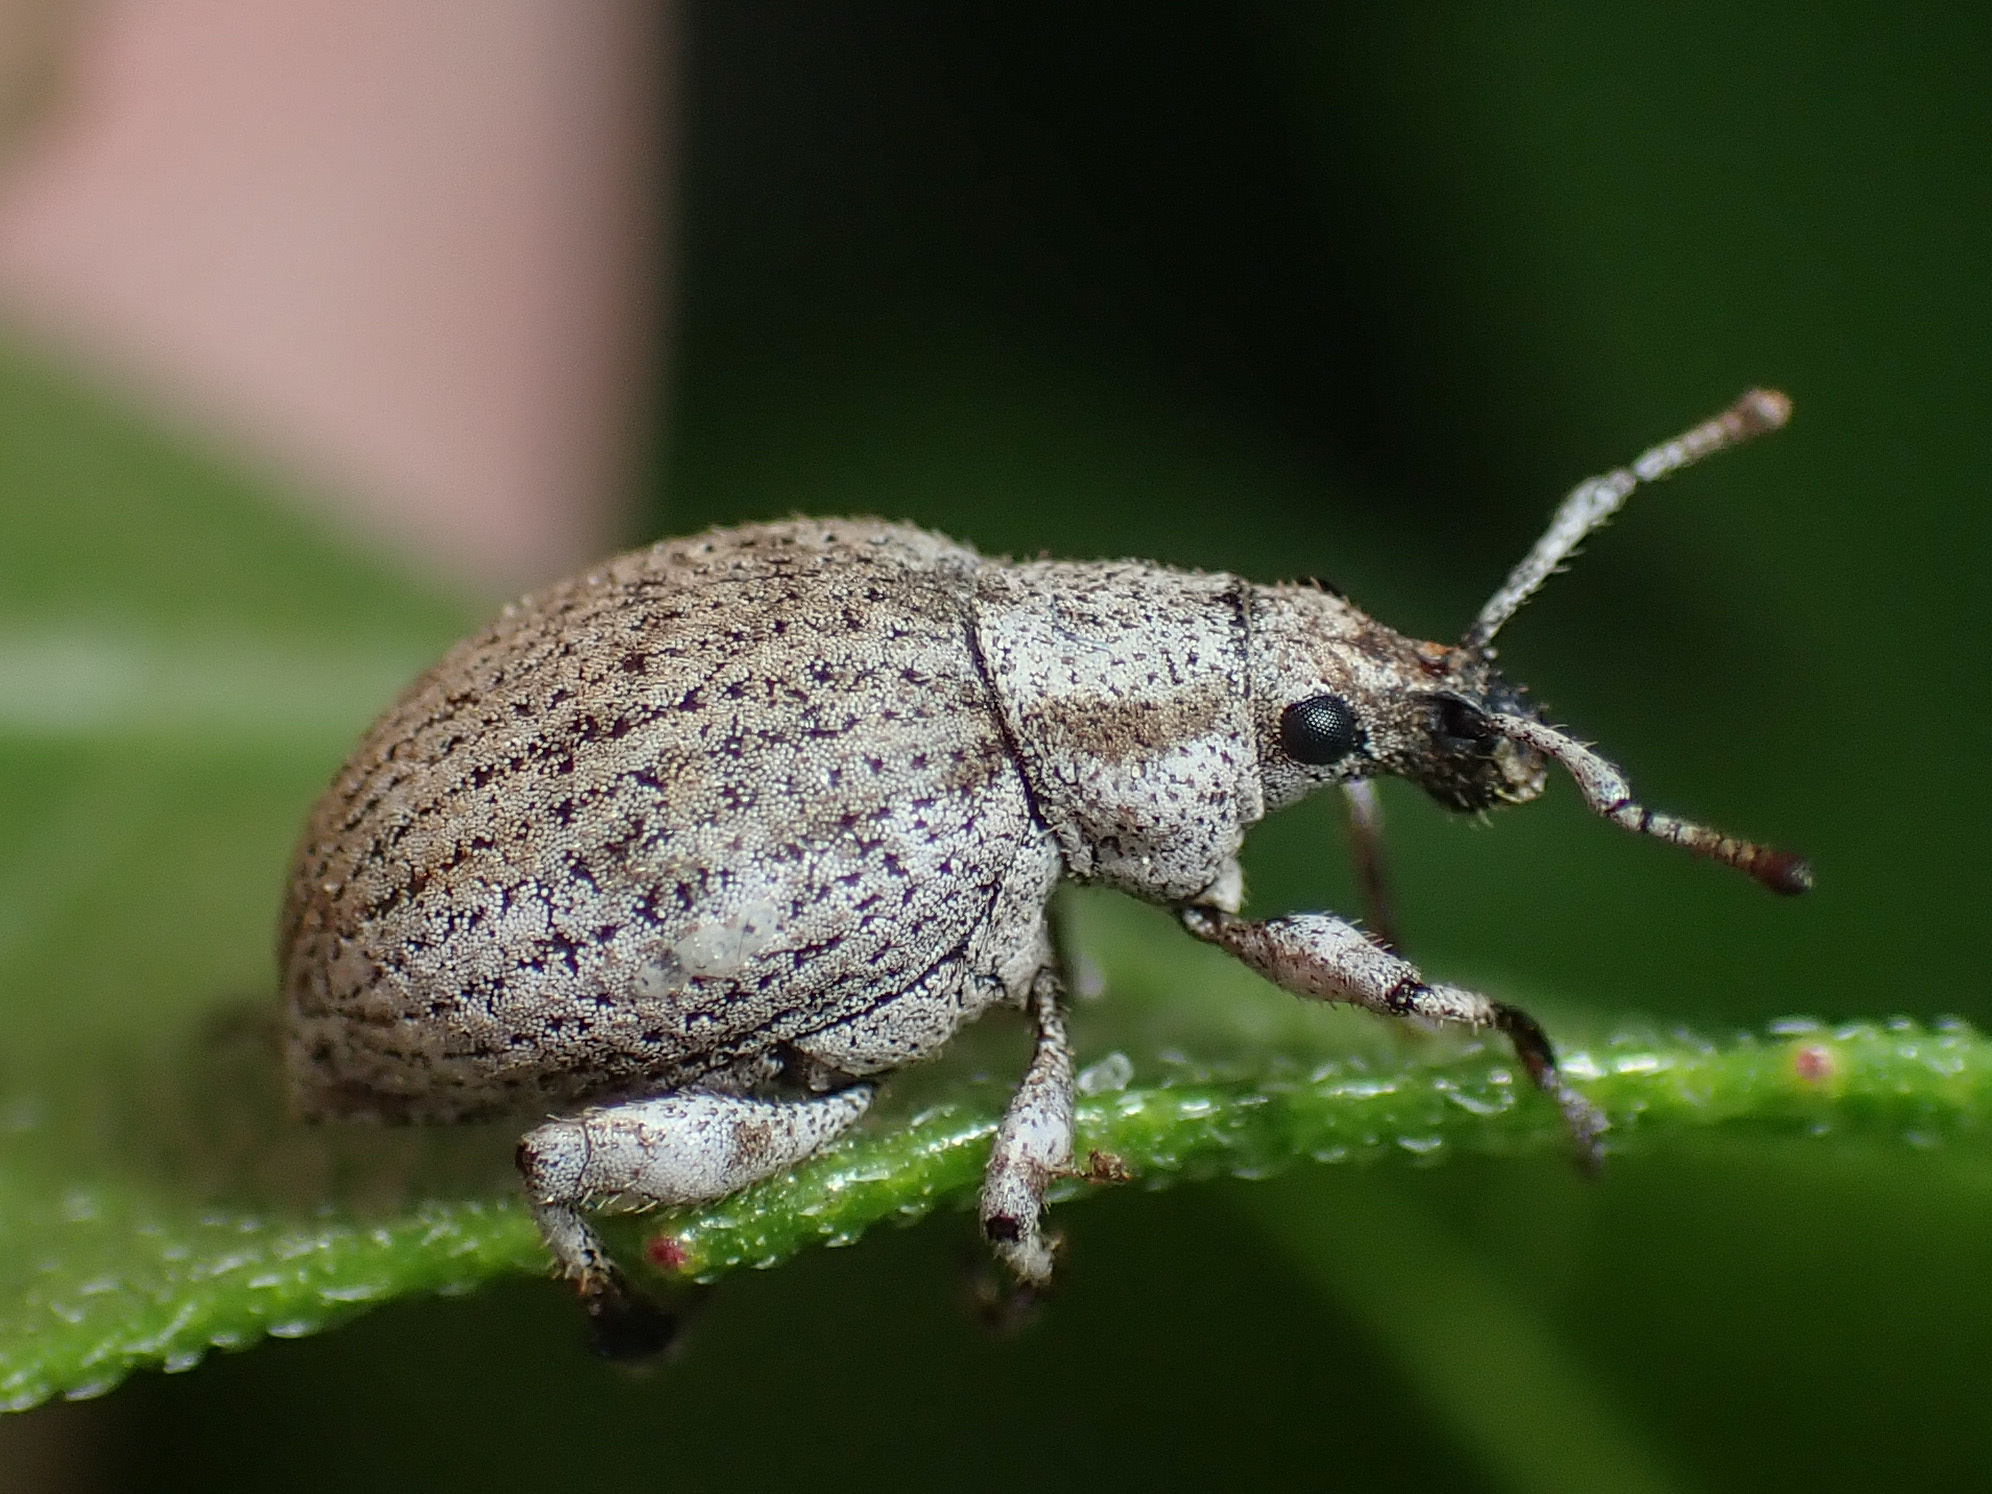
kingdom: Animalia
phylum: Arthropoda
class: Insecta
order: Coleoptera
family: Curculionidae
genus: Agraphus
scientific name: Agraphus bellicus
